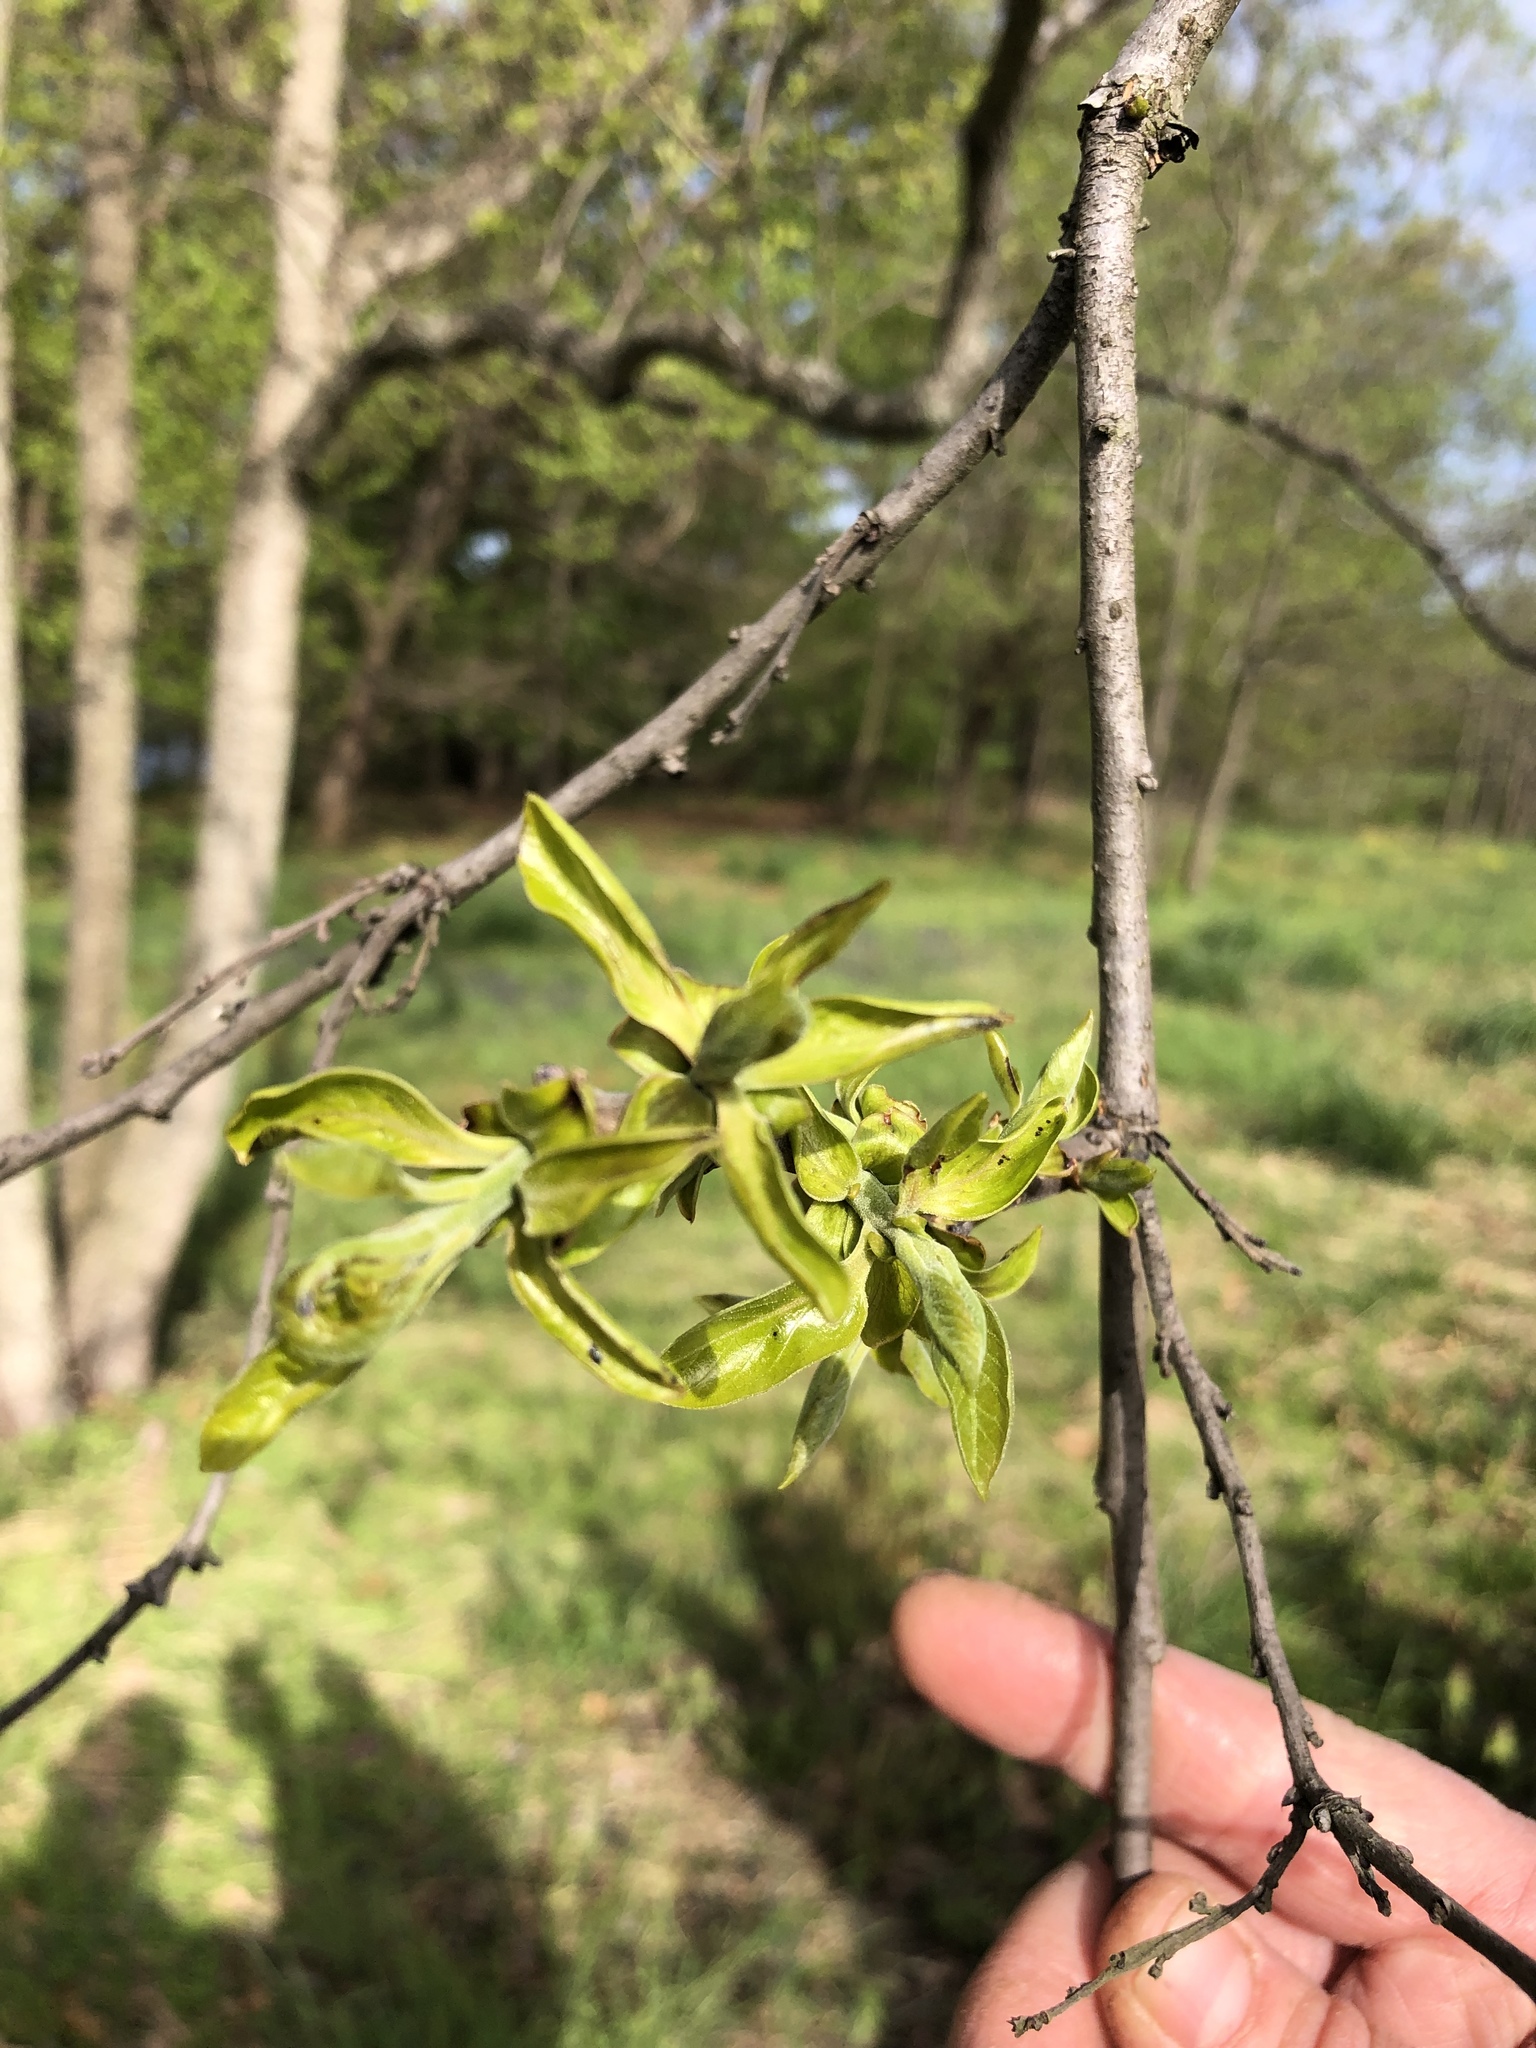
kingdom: Plantae
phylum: Tracheophyta
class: Magnoliopsida
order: Ericales
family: Ebenaceae
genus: Diospyros
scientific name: Diospyros virginiana
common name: Persimmon
